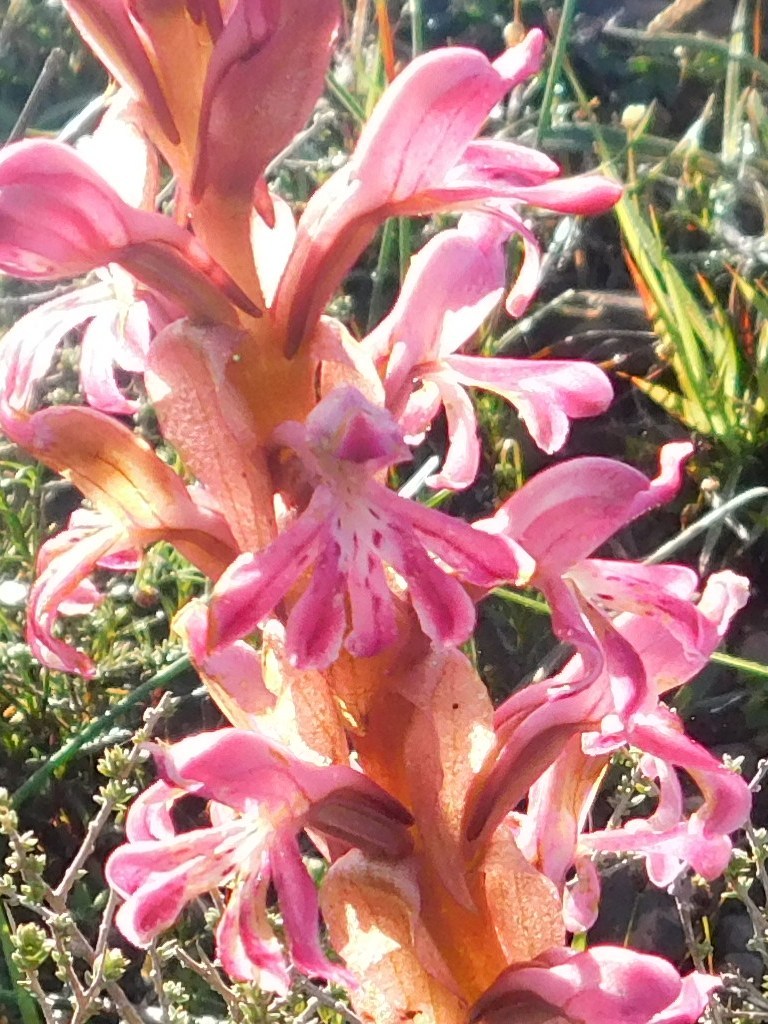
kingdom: Plantae
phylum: Tracheophyta
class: Liliopsida
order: Asparagales
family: Orchidaceae
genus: Satyrium
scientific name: Satyrium erectum
